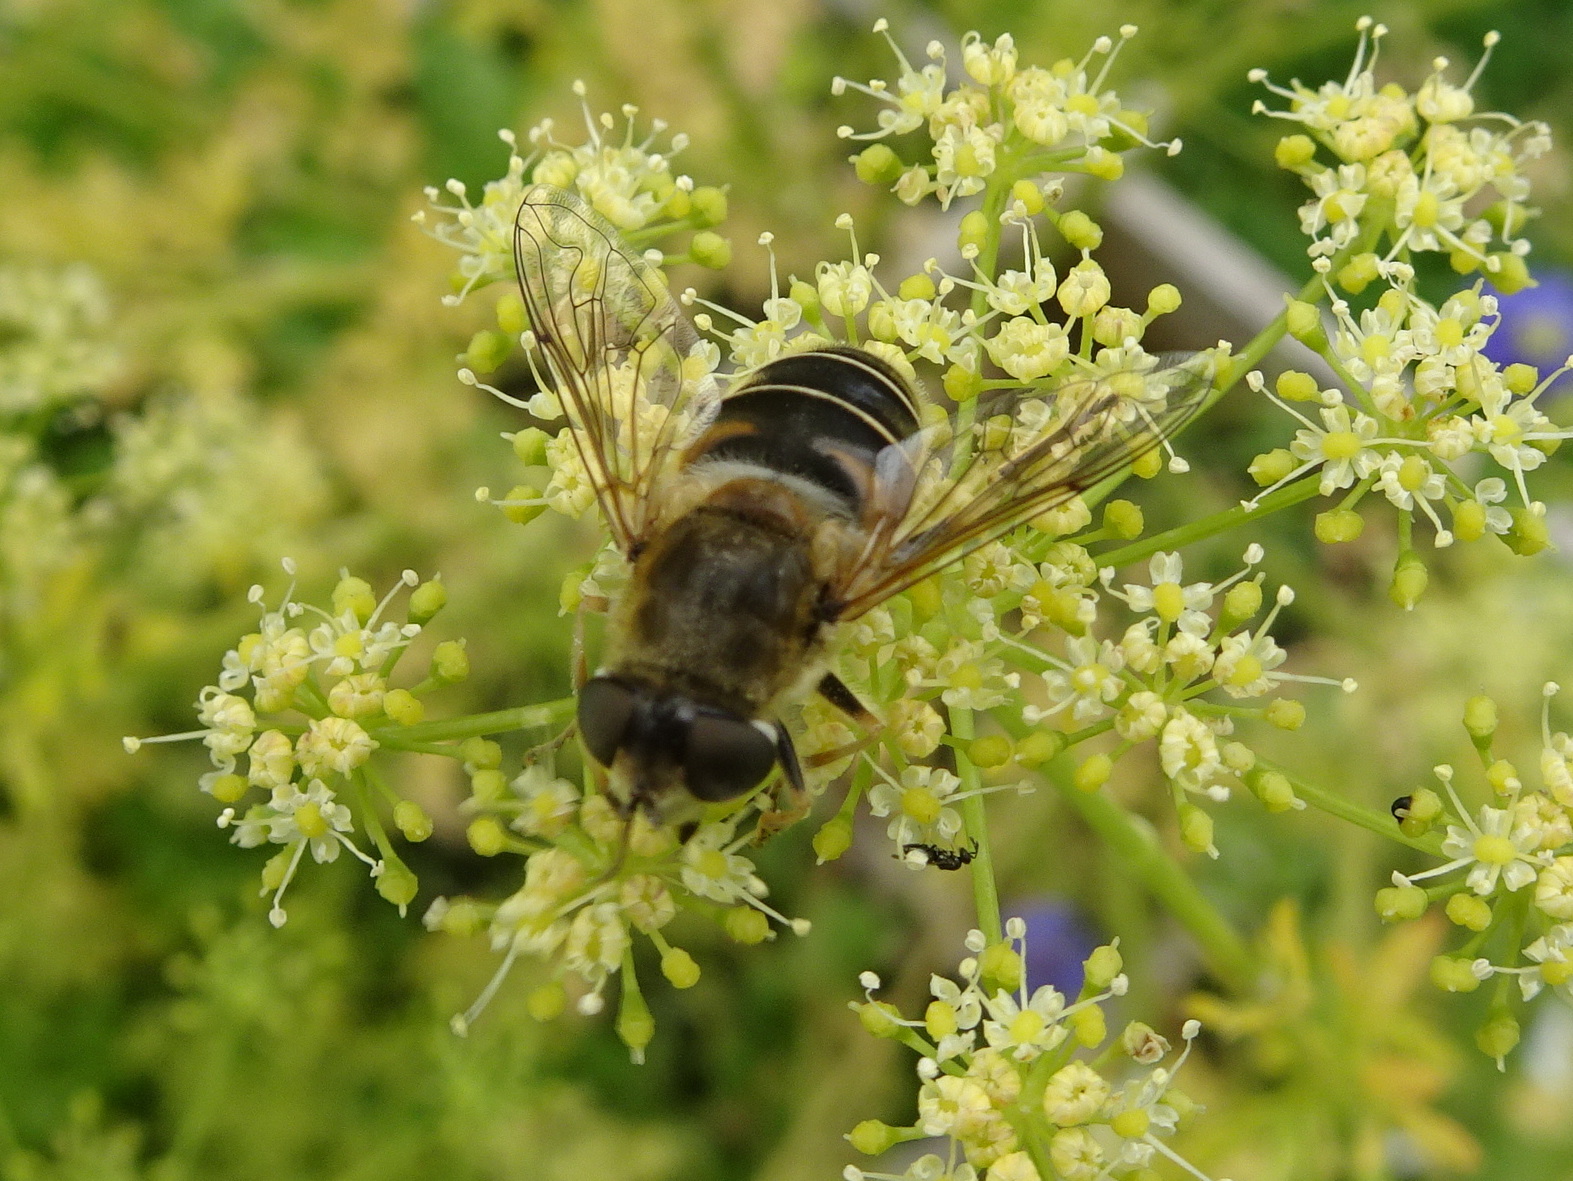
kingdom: Animalia
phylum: Arthropoda
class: Insecta
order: Diptera
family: Syrphidae
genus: Eristalis
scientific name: Eristalis nemorum
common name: Orange-spined drone fly
